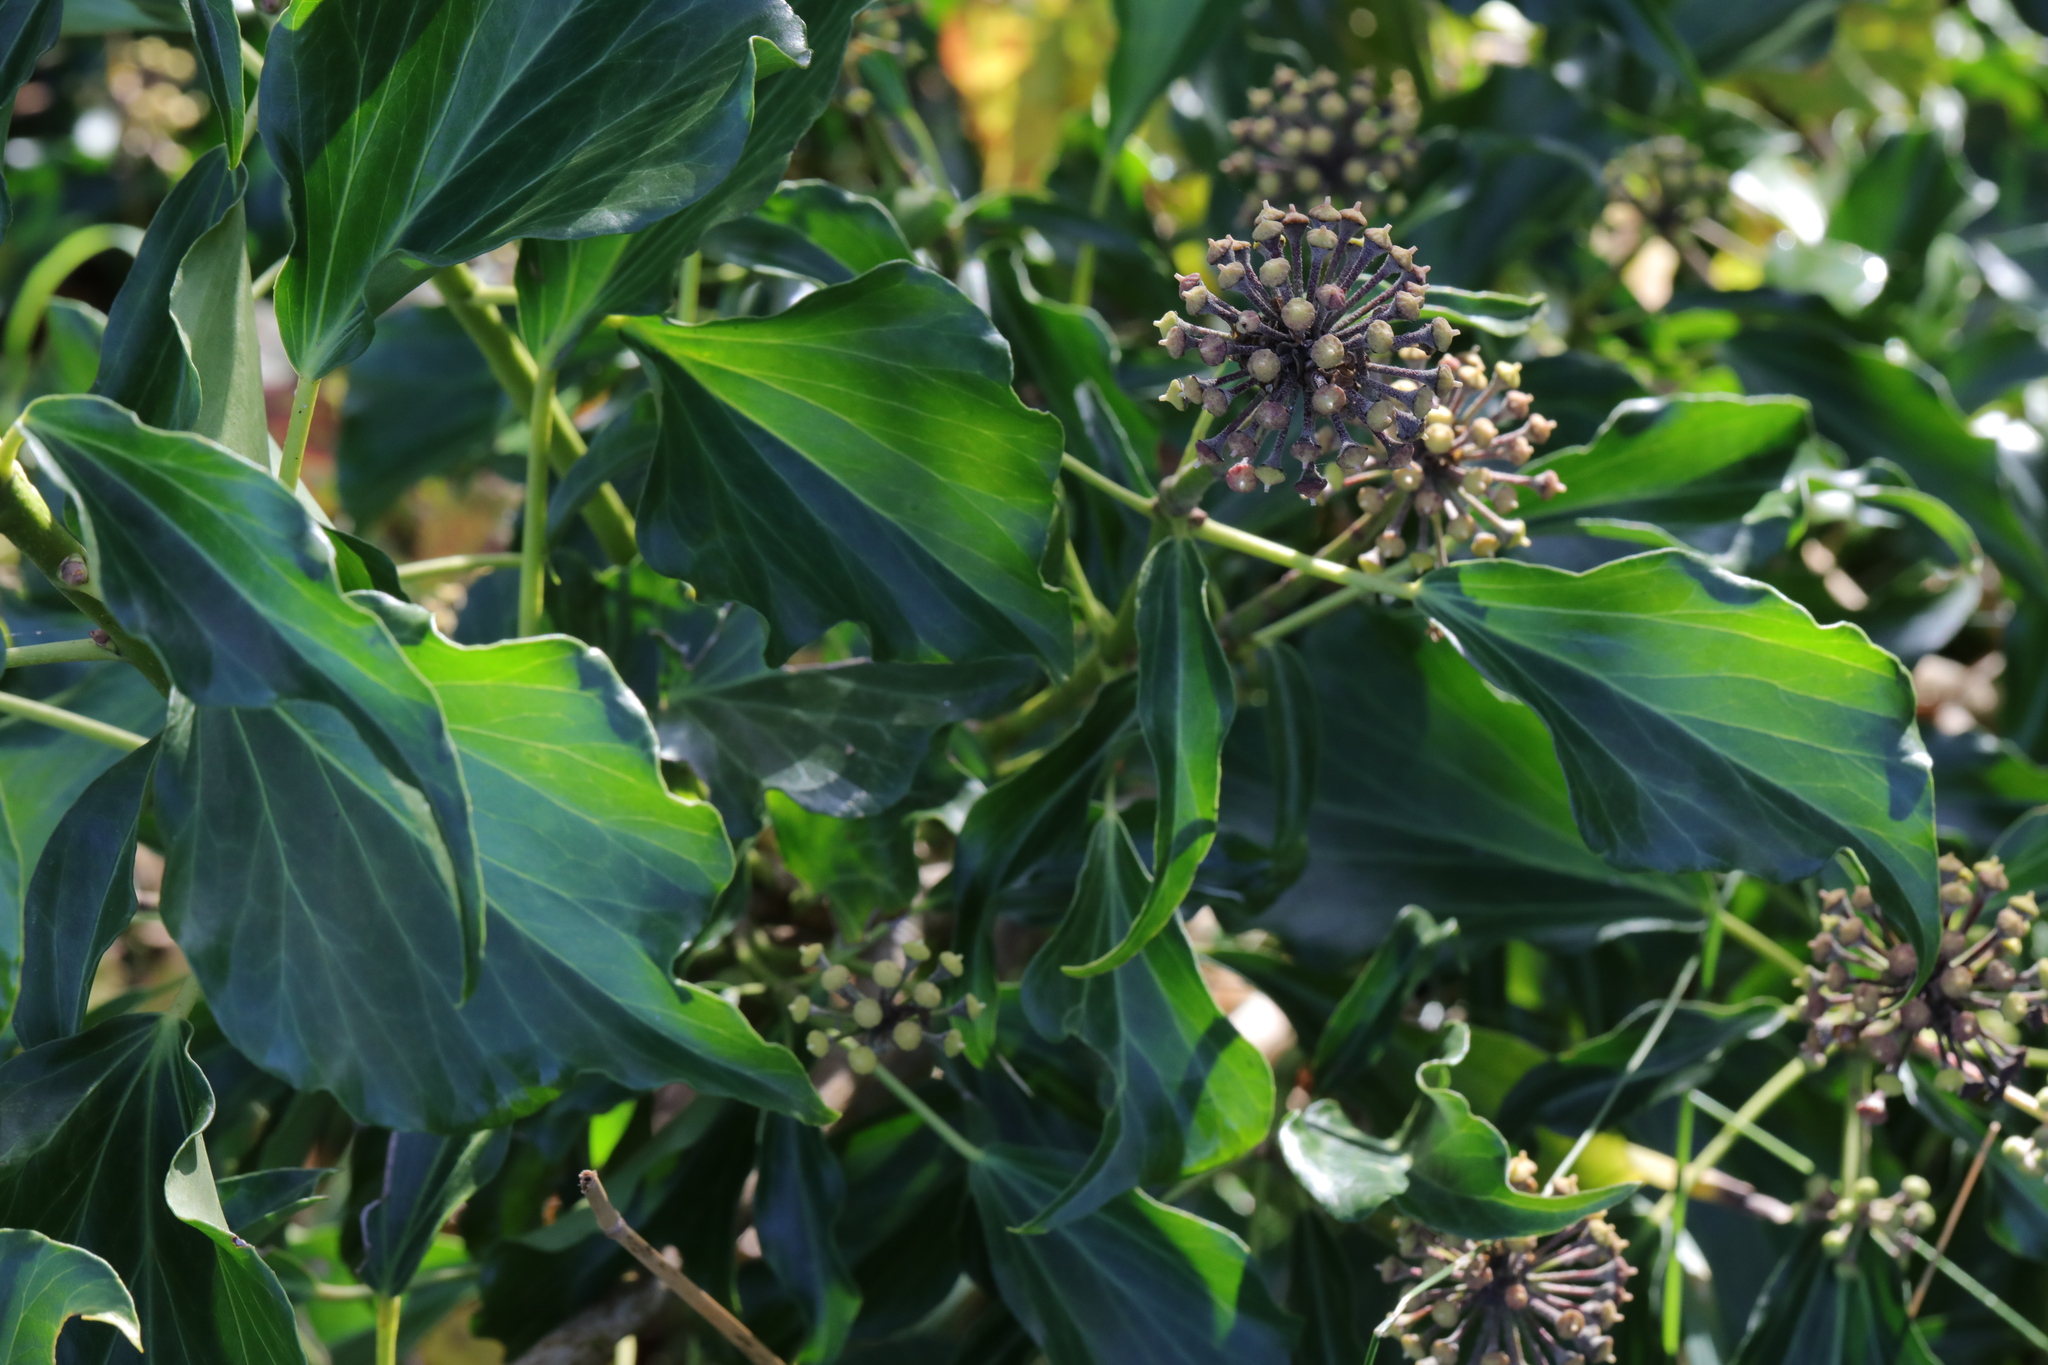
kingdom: Plantae
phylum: Tracheophyta
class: Magnoliopsida
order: Apiales
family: Araliaceae
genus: Hedera
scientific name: Hedera helix
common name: Ivy
